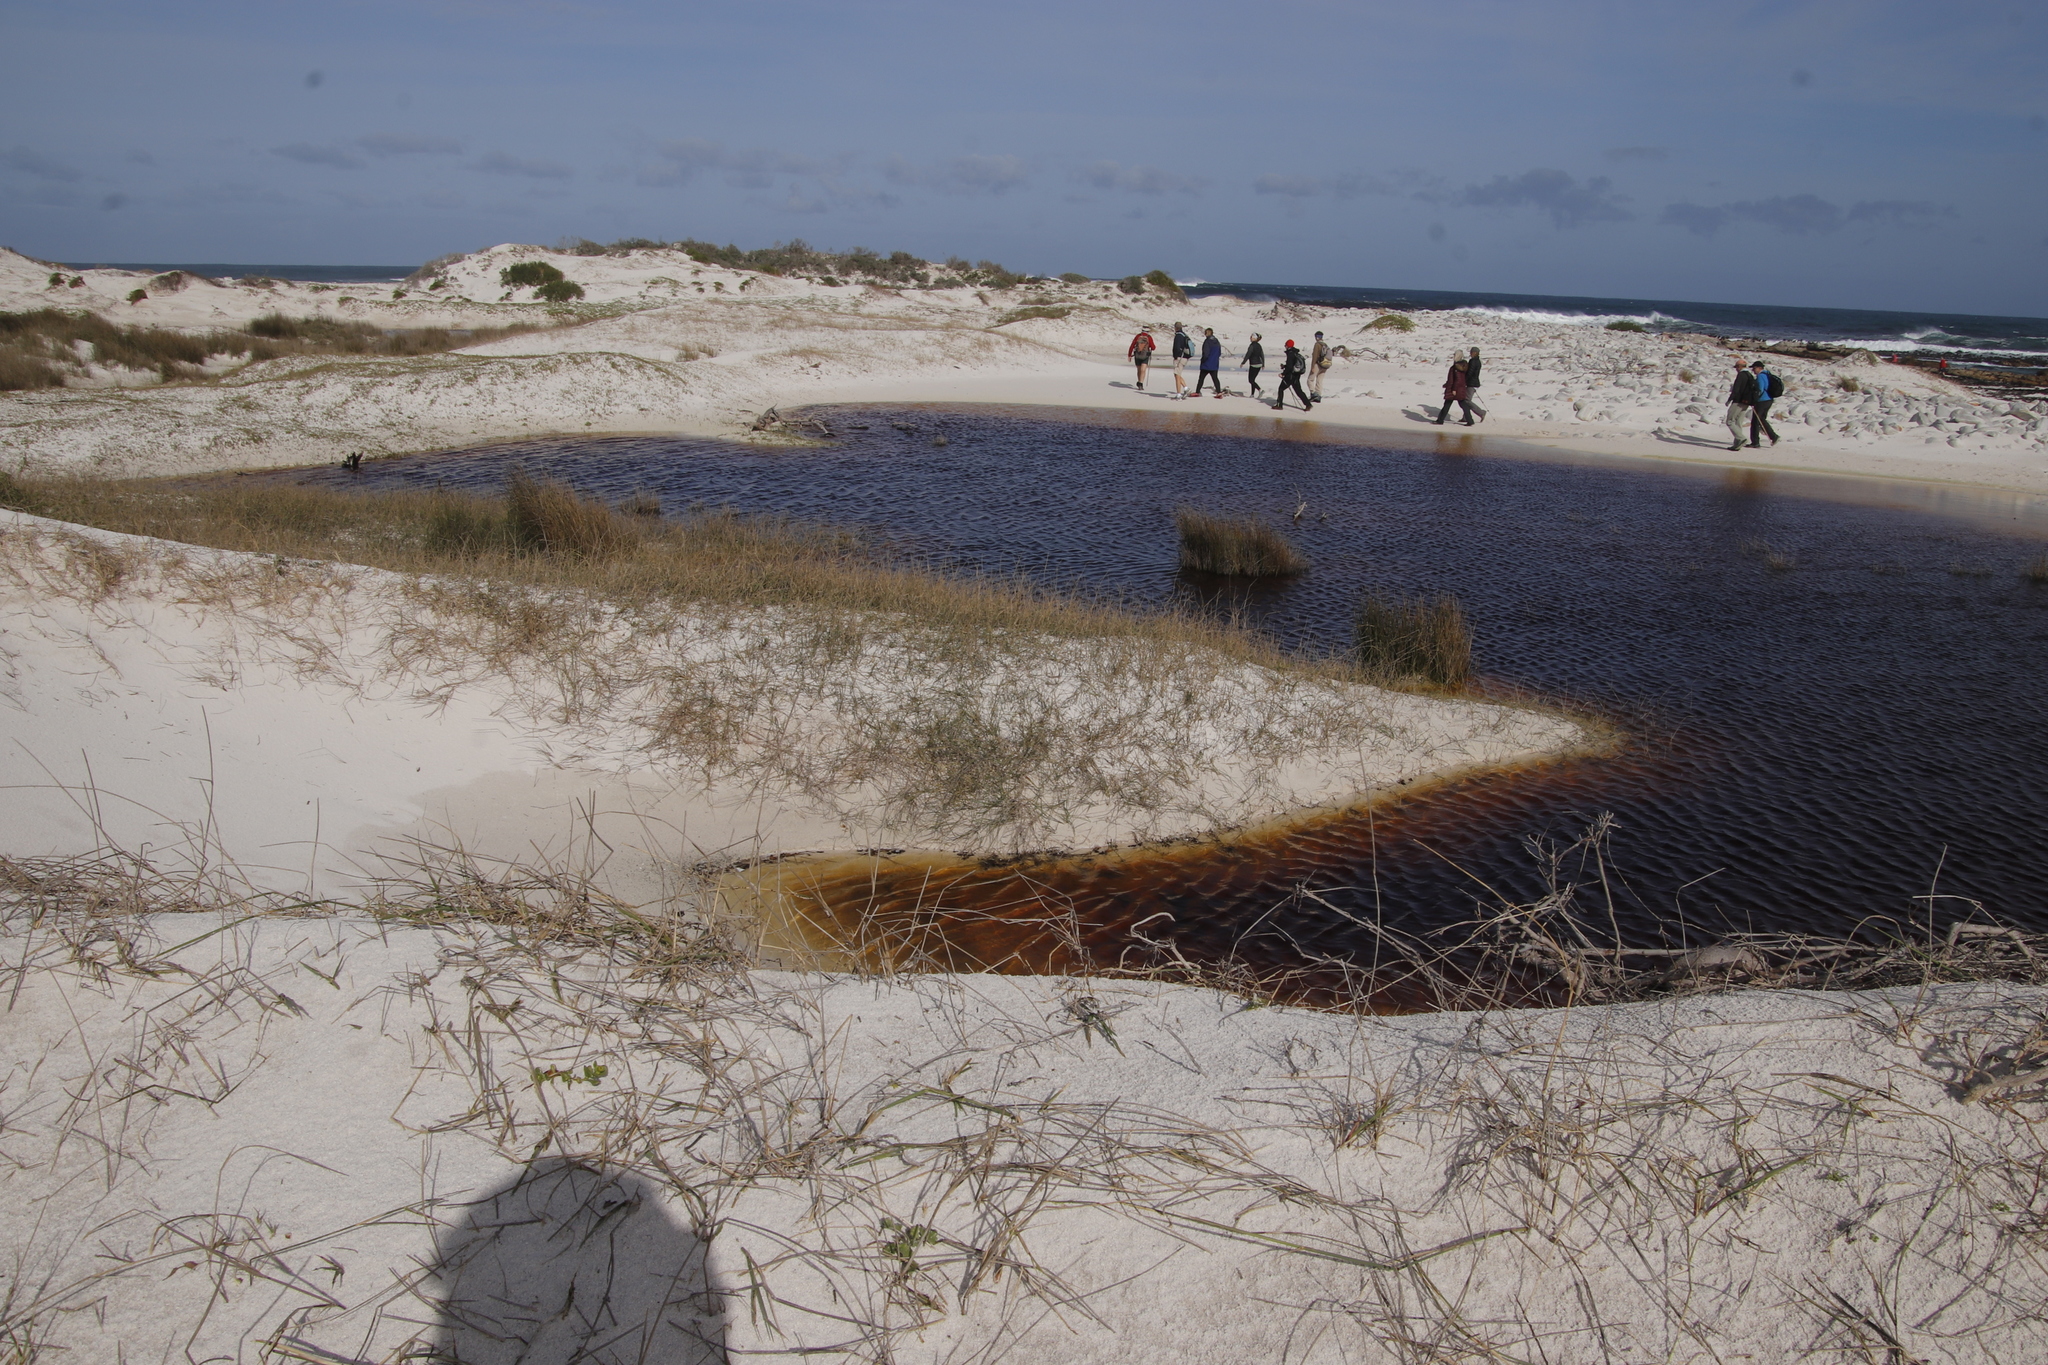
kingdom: Plantae
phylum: Tracheophyta
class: Liliopsida
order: Poales
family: Poaceae
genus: Ehrharta
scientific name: Ehrharta villosa
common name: Pyp grass
